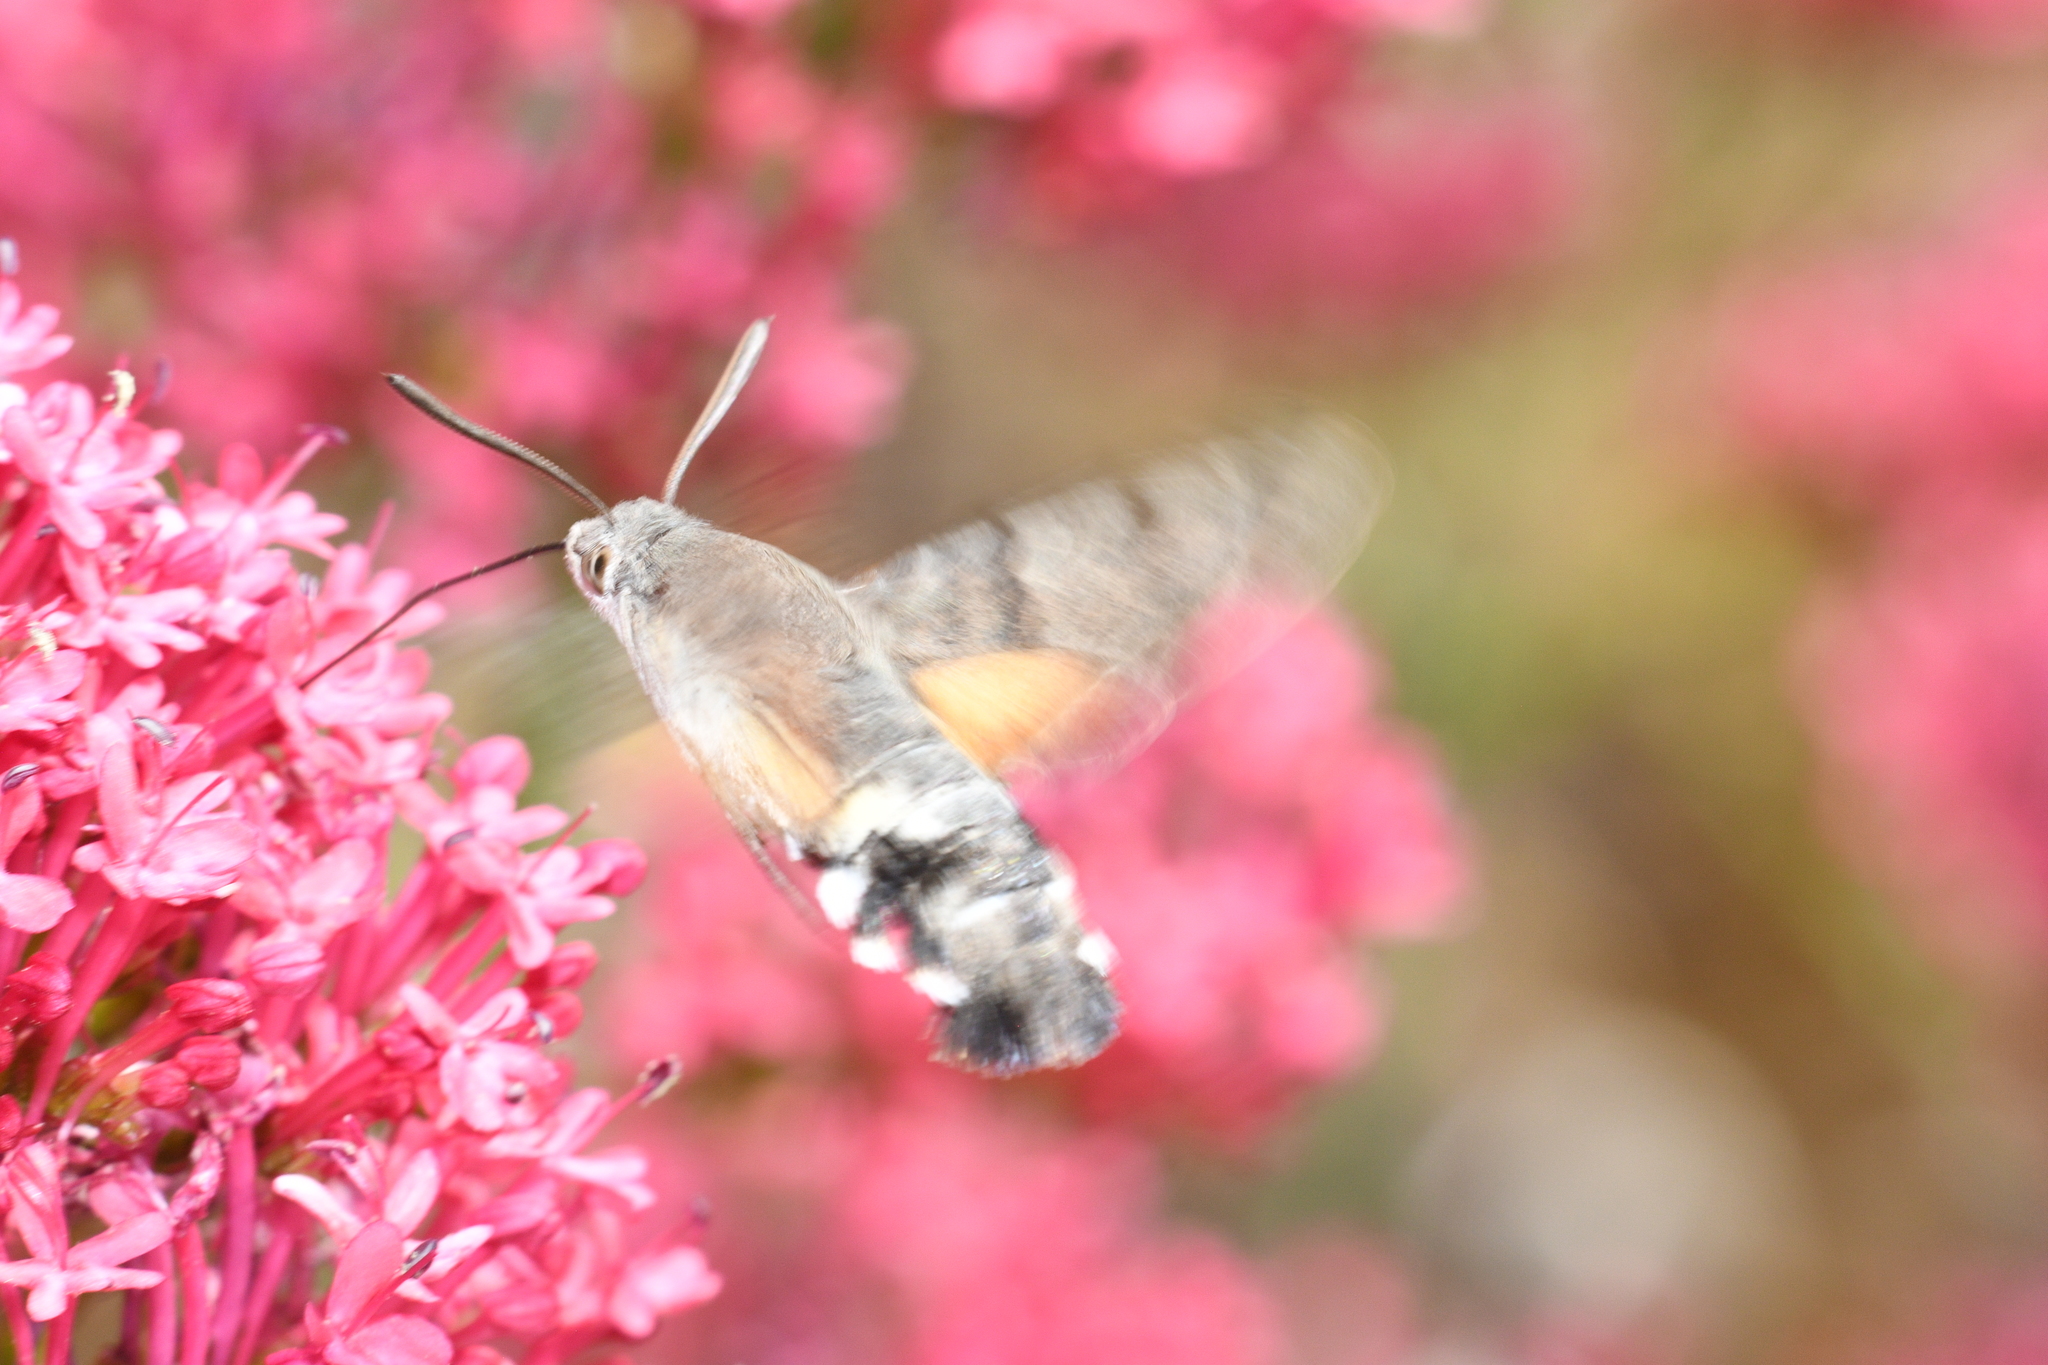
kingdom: Animalia
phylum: Arthropoda
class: Insecta
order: Lepidoptera
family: Sphingidae
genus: Macroglossum
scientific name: Macroglossum stellatarum
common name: Humming-bird hawk-moth
